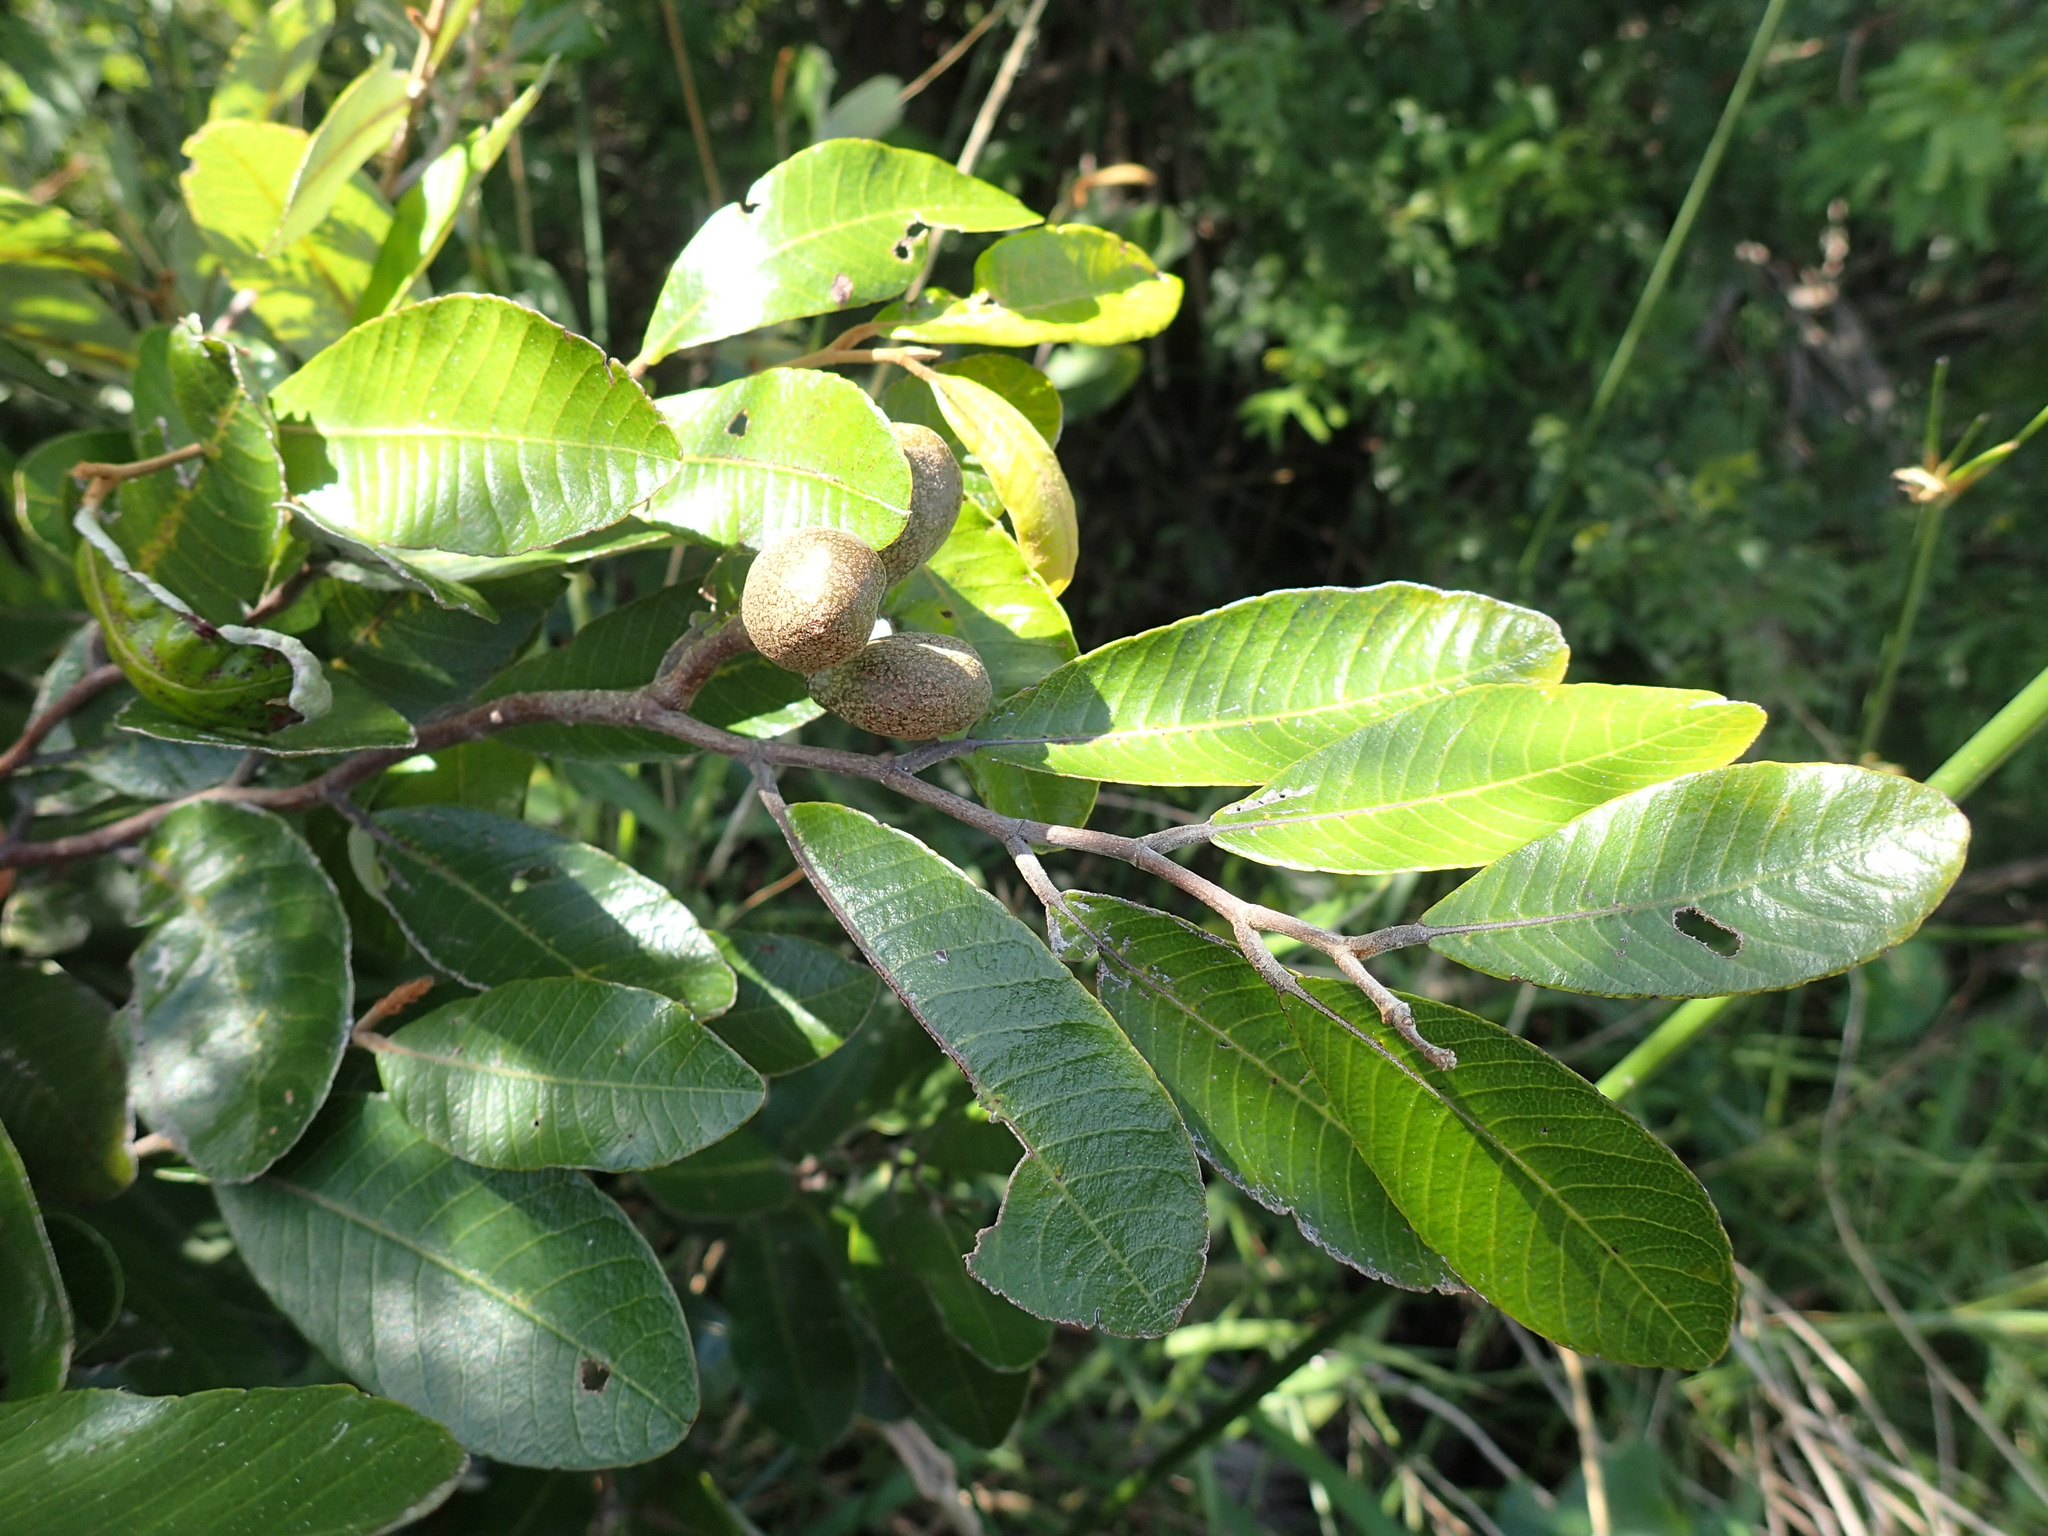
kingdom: Plantae
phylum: Tracheophyta
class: Magnoliopsida
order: Malpighiales
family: Chrysobalanaceae
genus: Parinari
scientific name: Parinari capensis
